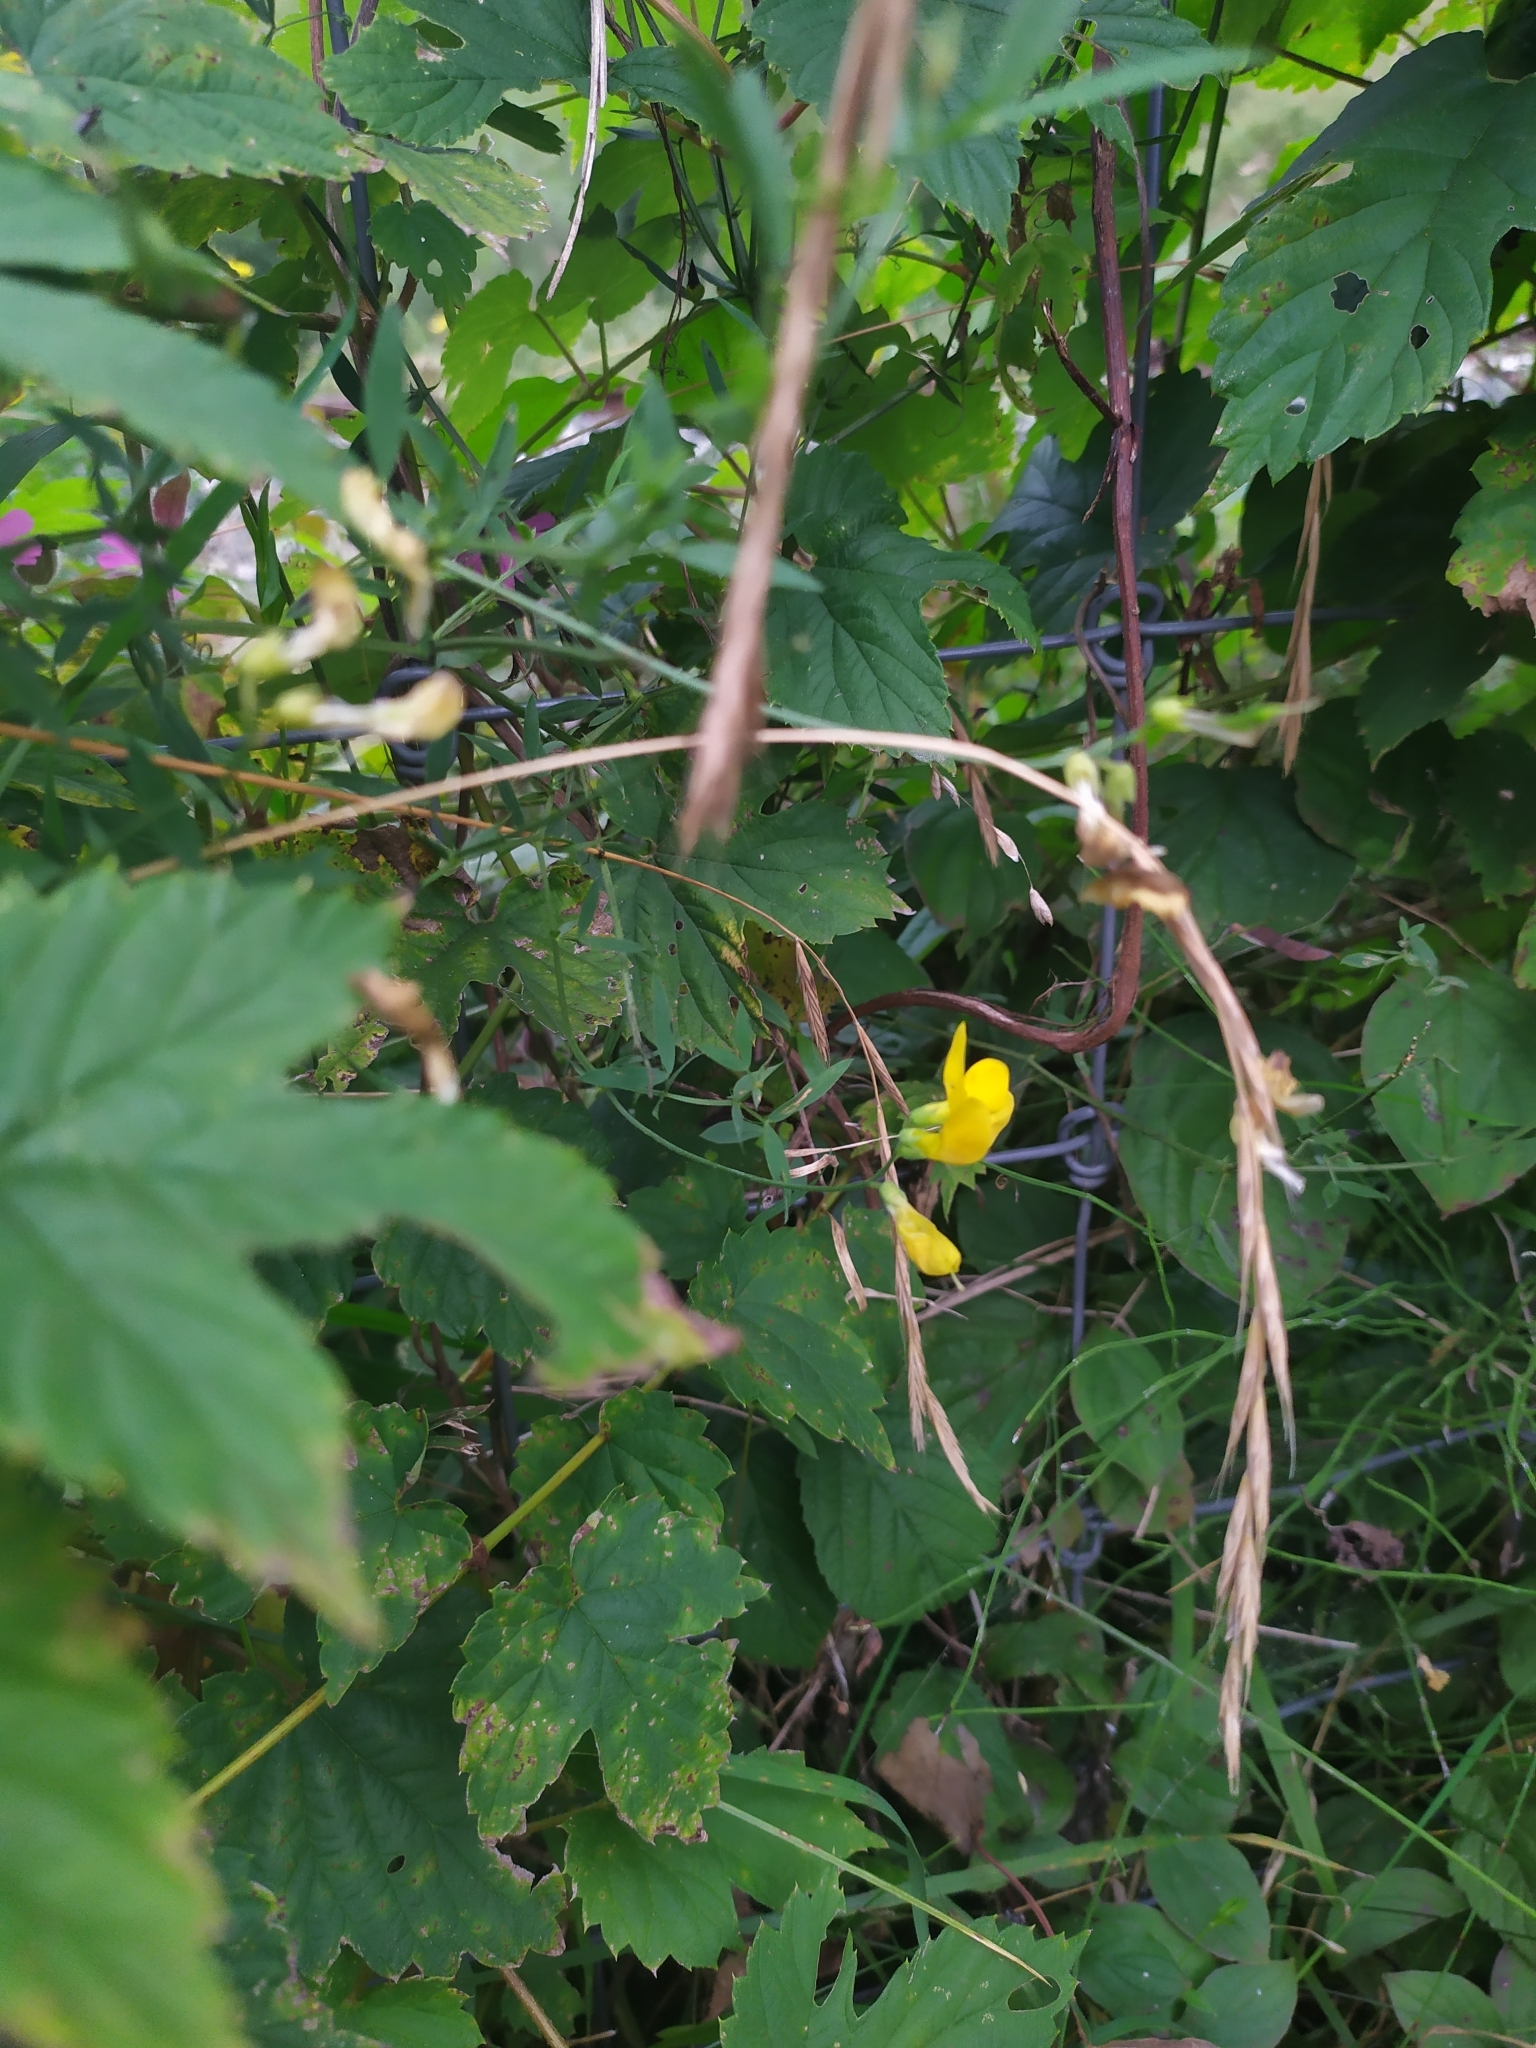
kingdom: Plantae
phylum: Tracheophyta
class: Magnoliopsida
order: Fabales
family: Fabaceae
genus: Lathyrus
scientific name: Lathyrus pratensis
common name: Meadow vetchling
